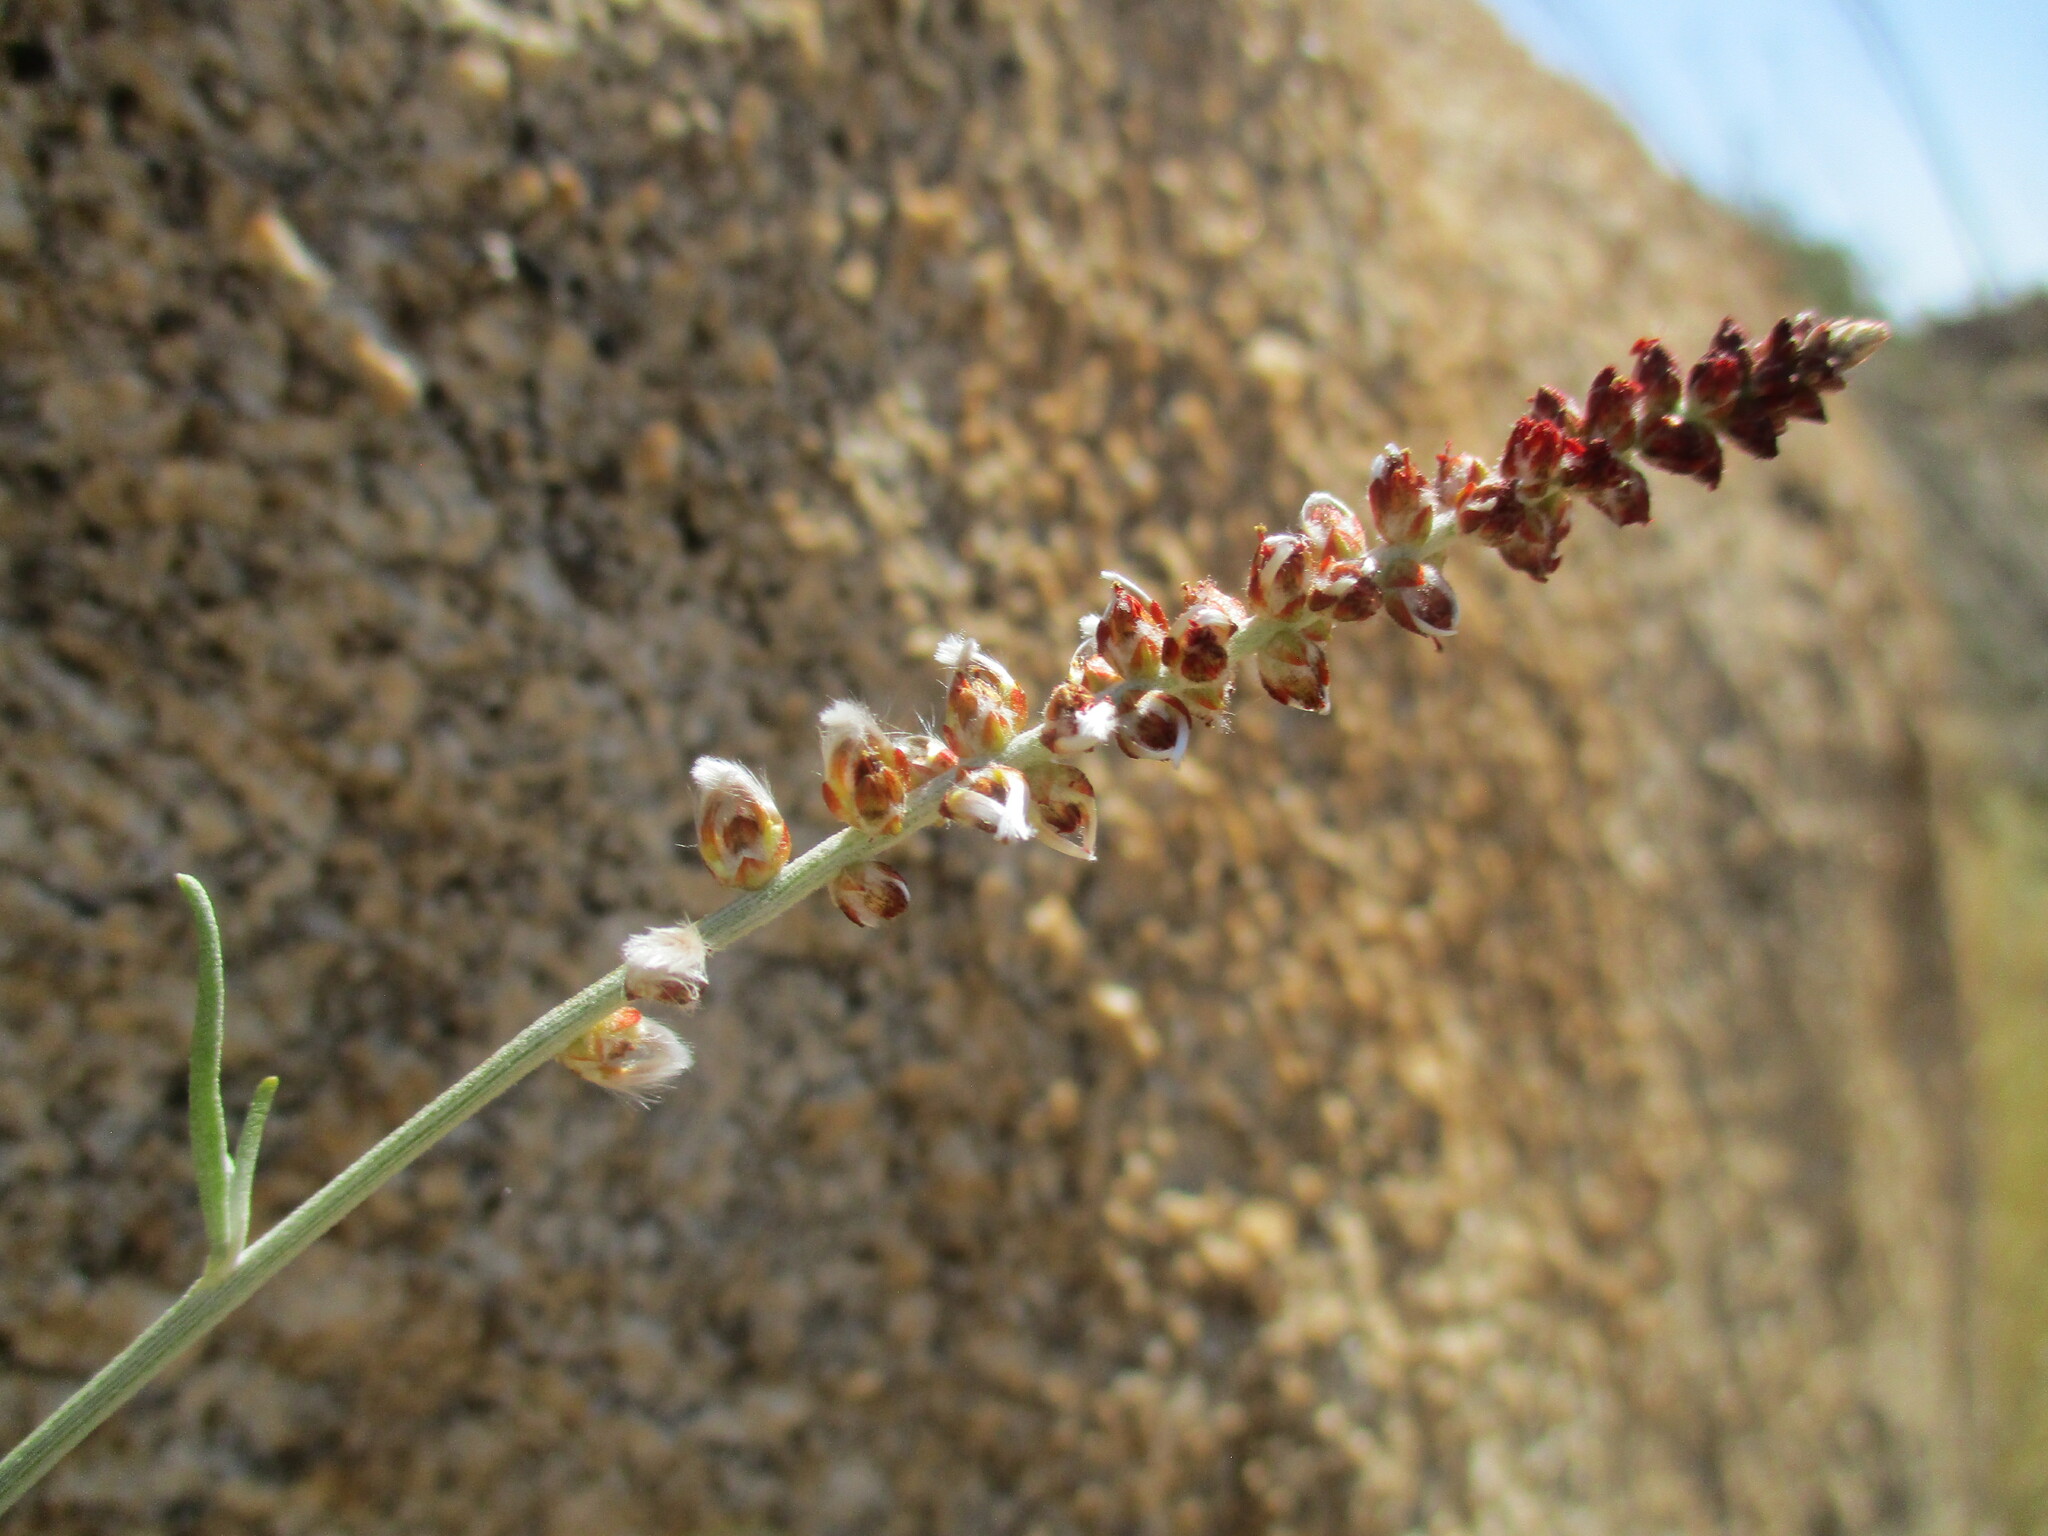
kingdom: Plantae
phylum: Tracheophyta
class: Magnoliopsida
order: Caryophyllales
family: Amaranthaceae
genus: Marcelliopsis
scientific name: Marcelliopsis splendens
